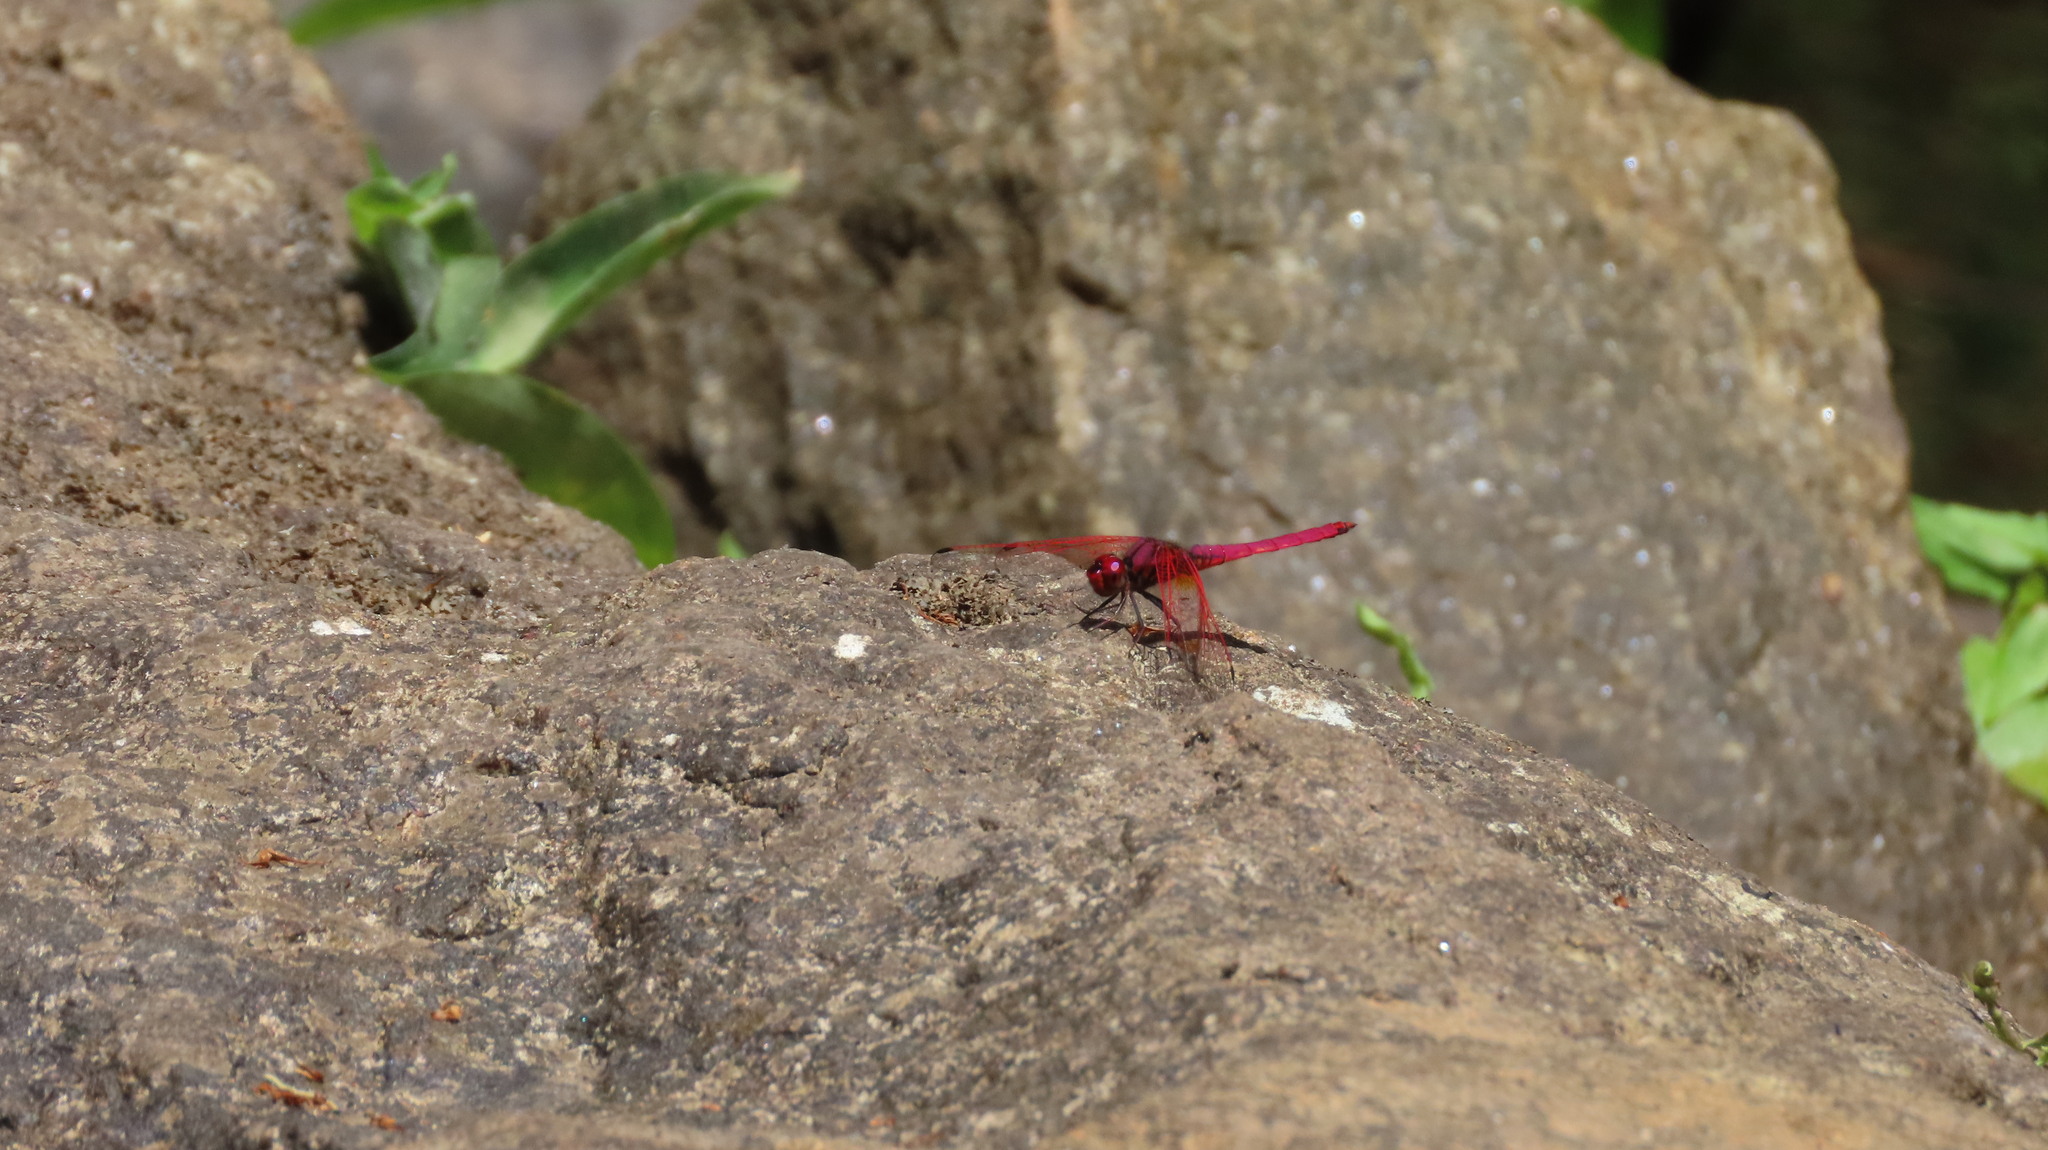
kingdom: Animalia
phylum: Arthropoda
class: Insecta
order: Odonata
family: Libellulidae
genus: Trithemis
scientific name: Trithemis aurora
